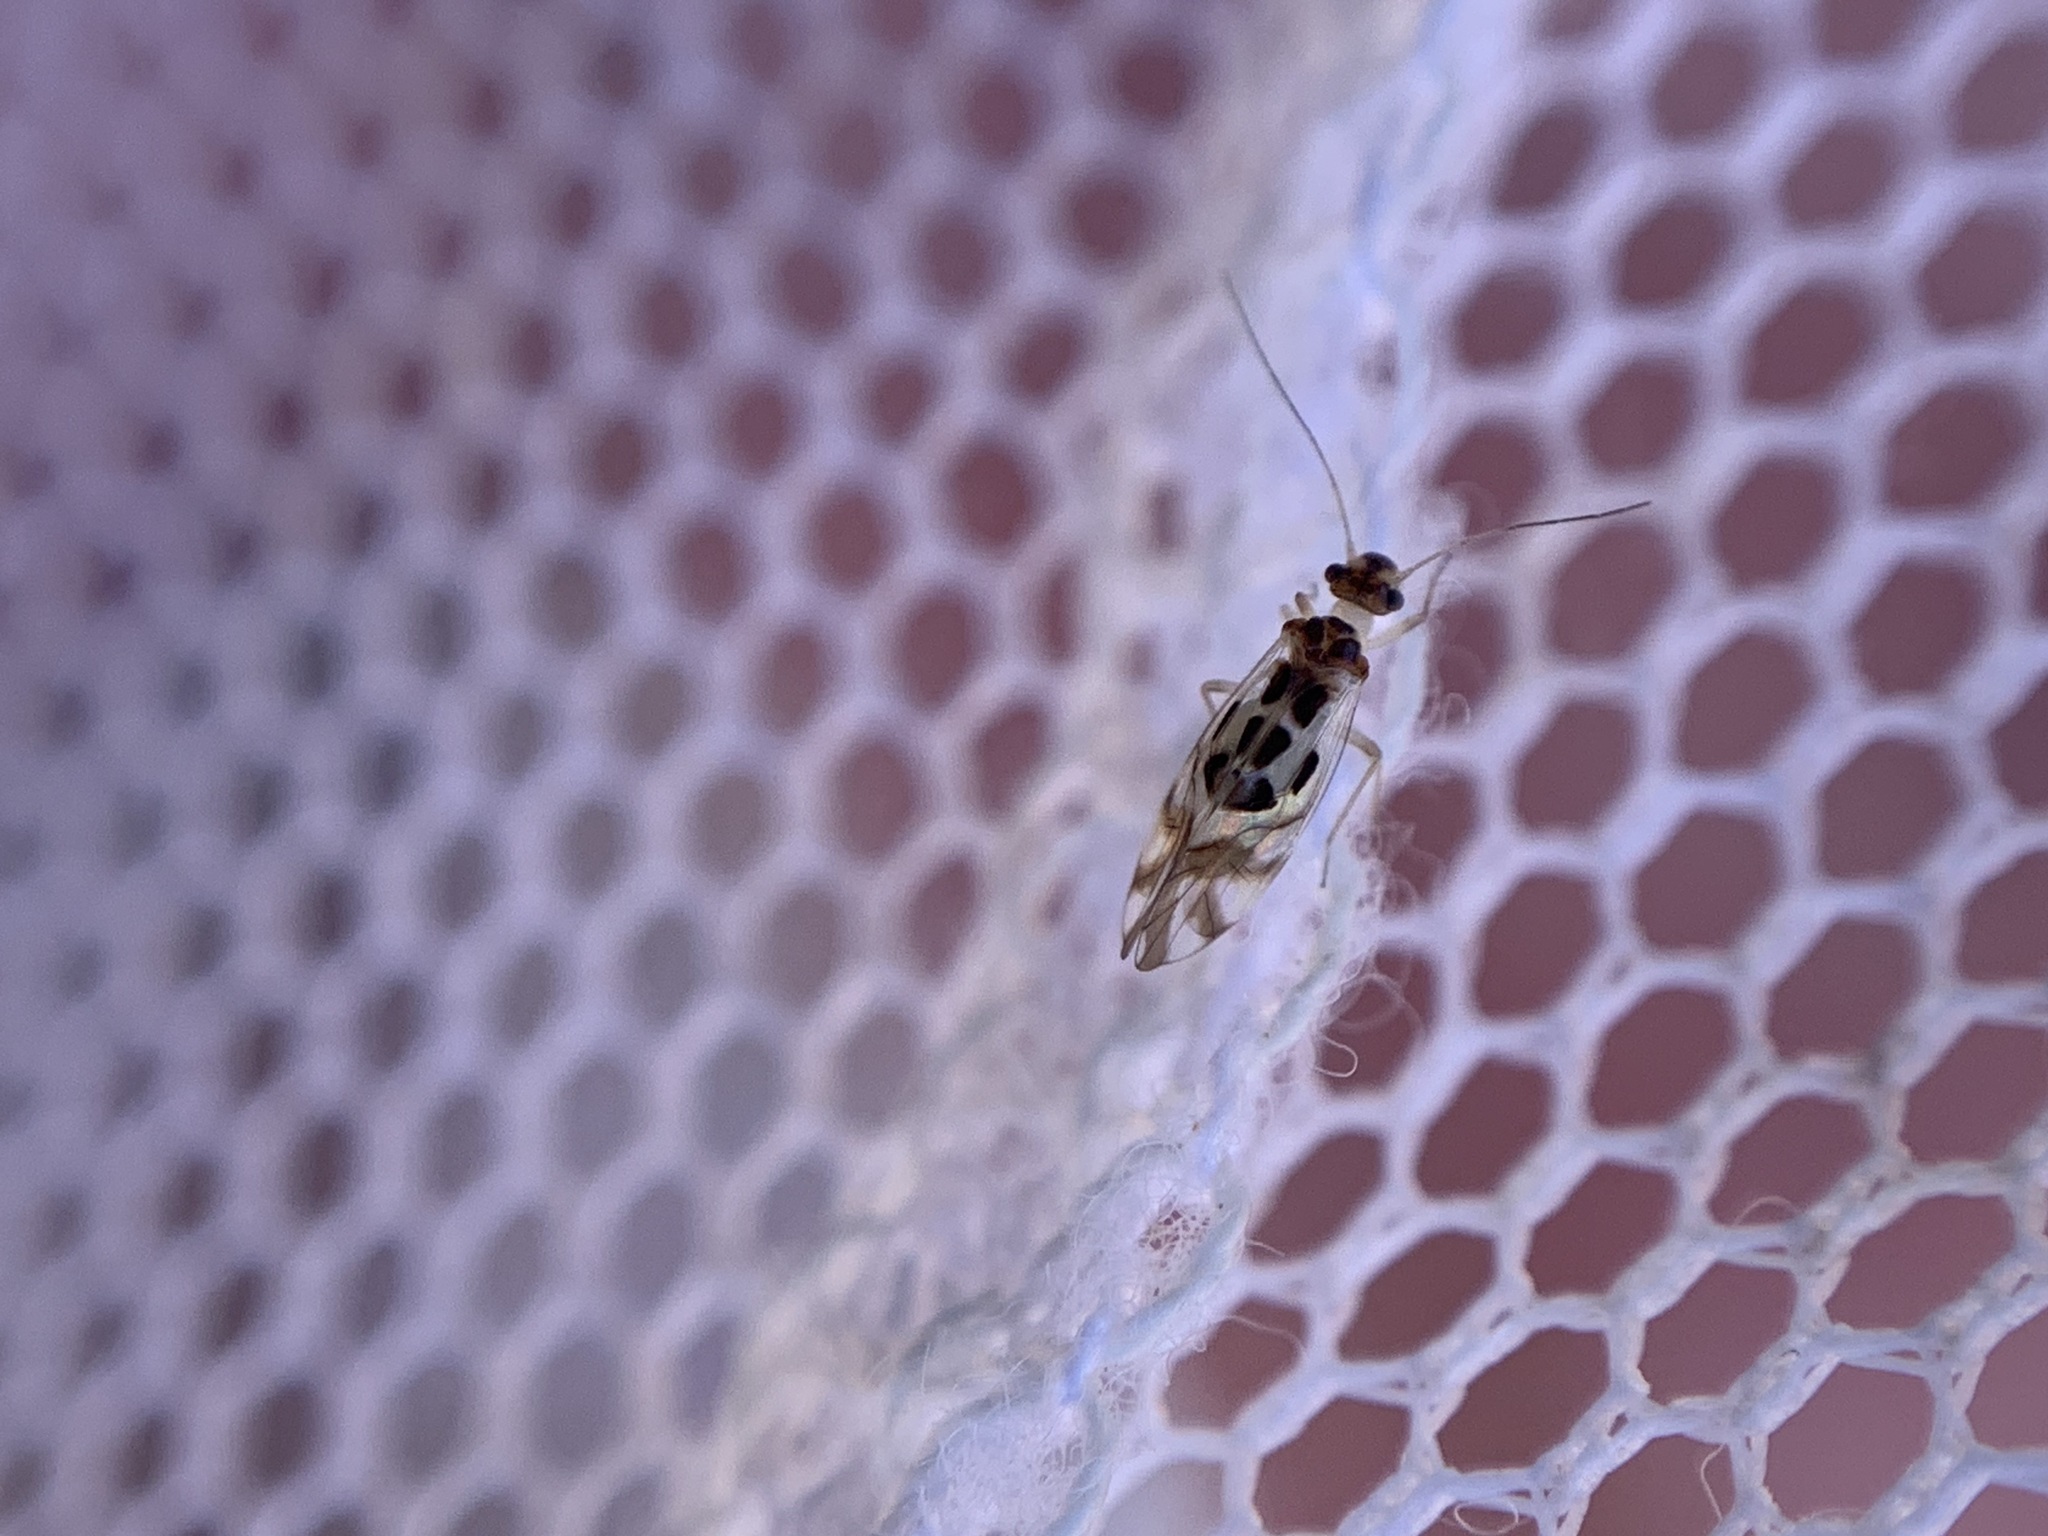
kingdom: Animalia
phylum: Arthropoda
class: Insecta
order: Psocodea
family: Stenopsocidae
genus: Graphopsocus
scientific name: Graphopsocus cruciatus
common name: Lizard bark louse
